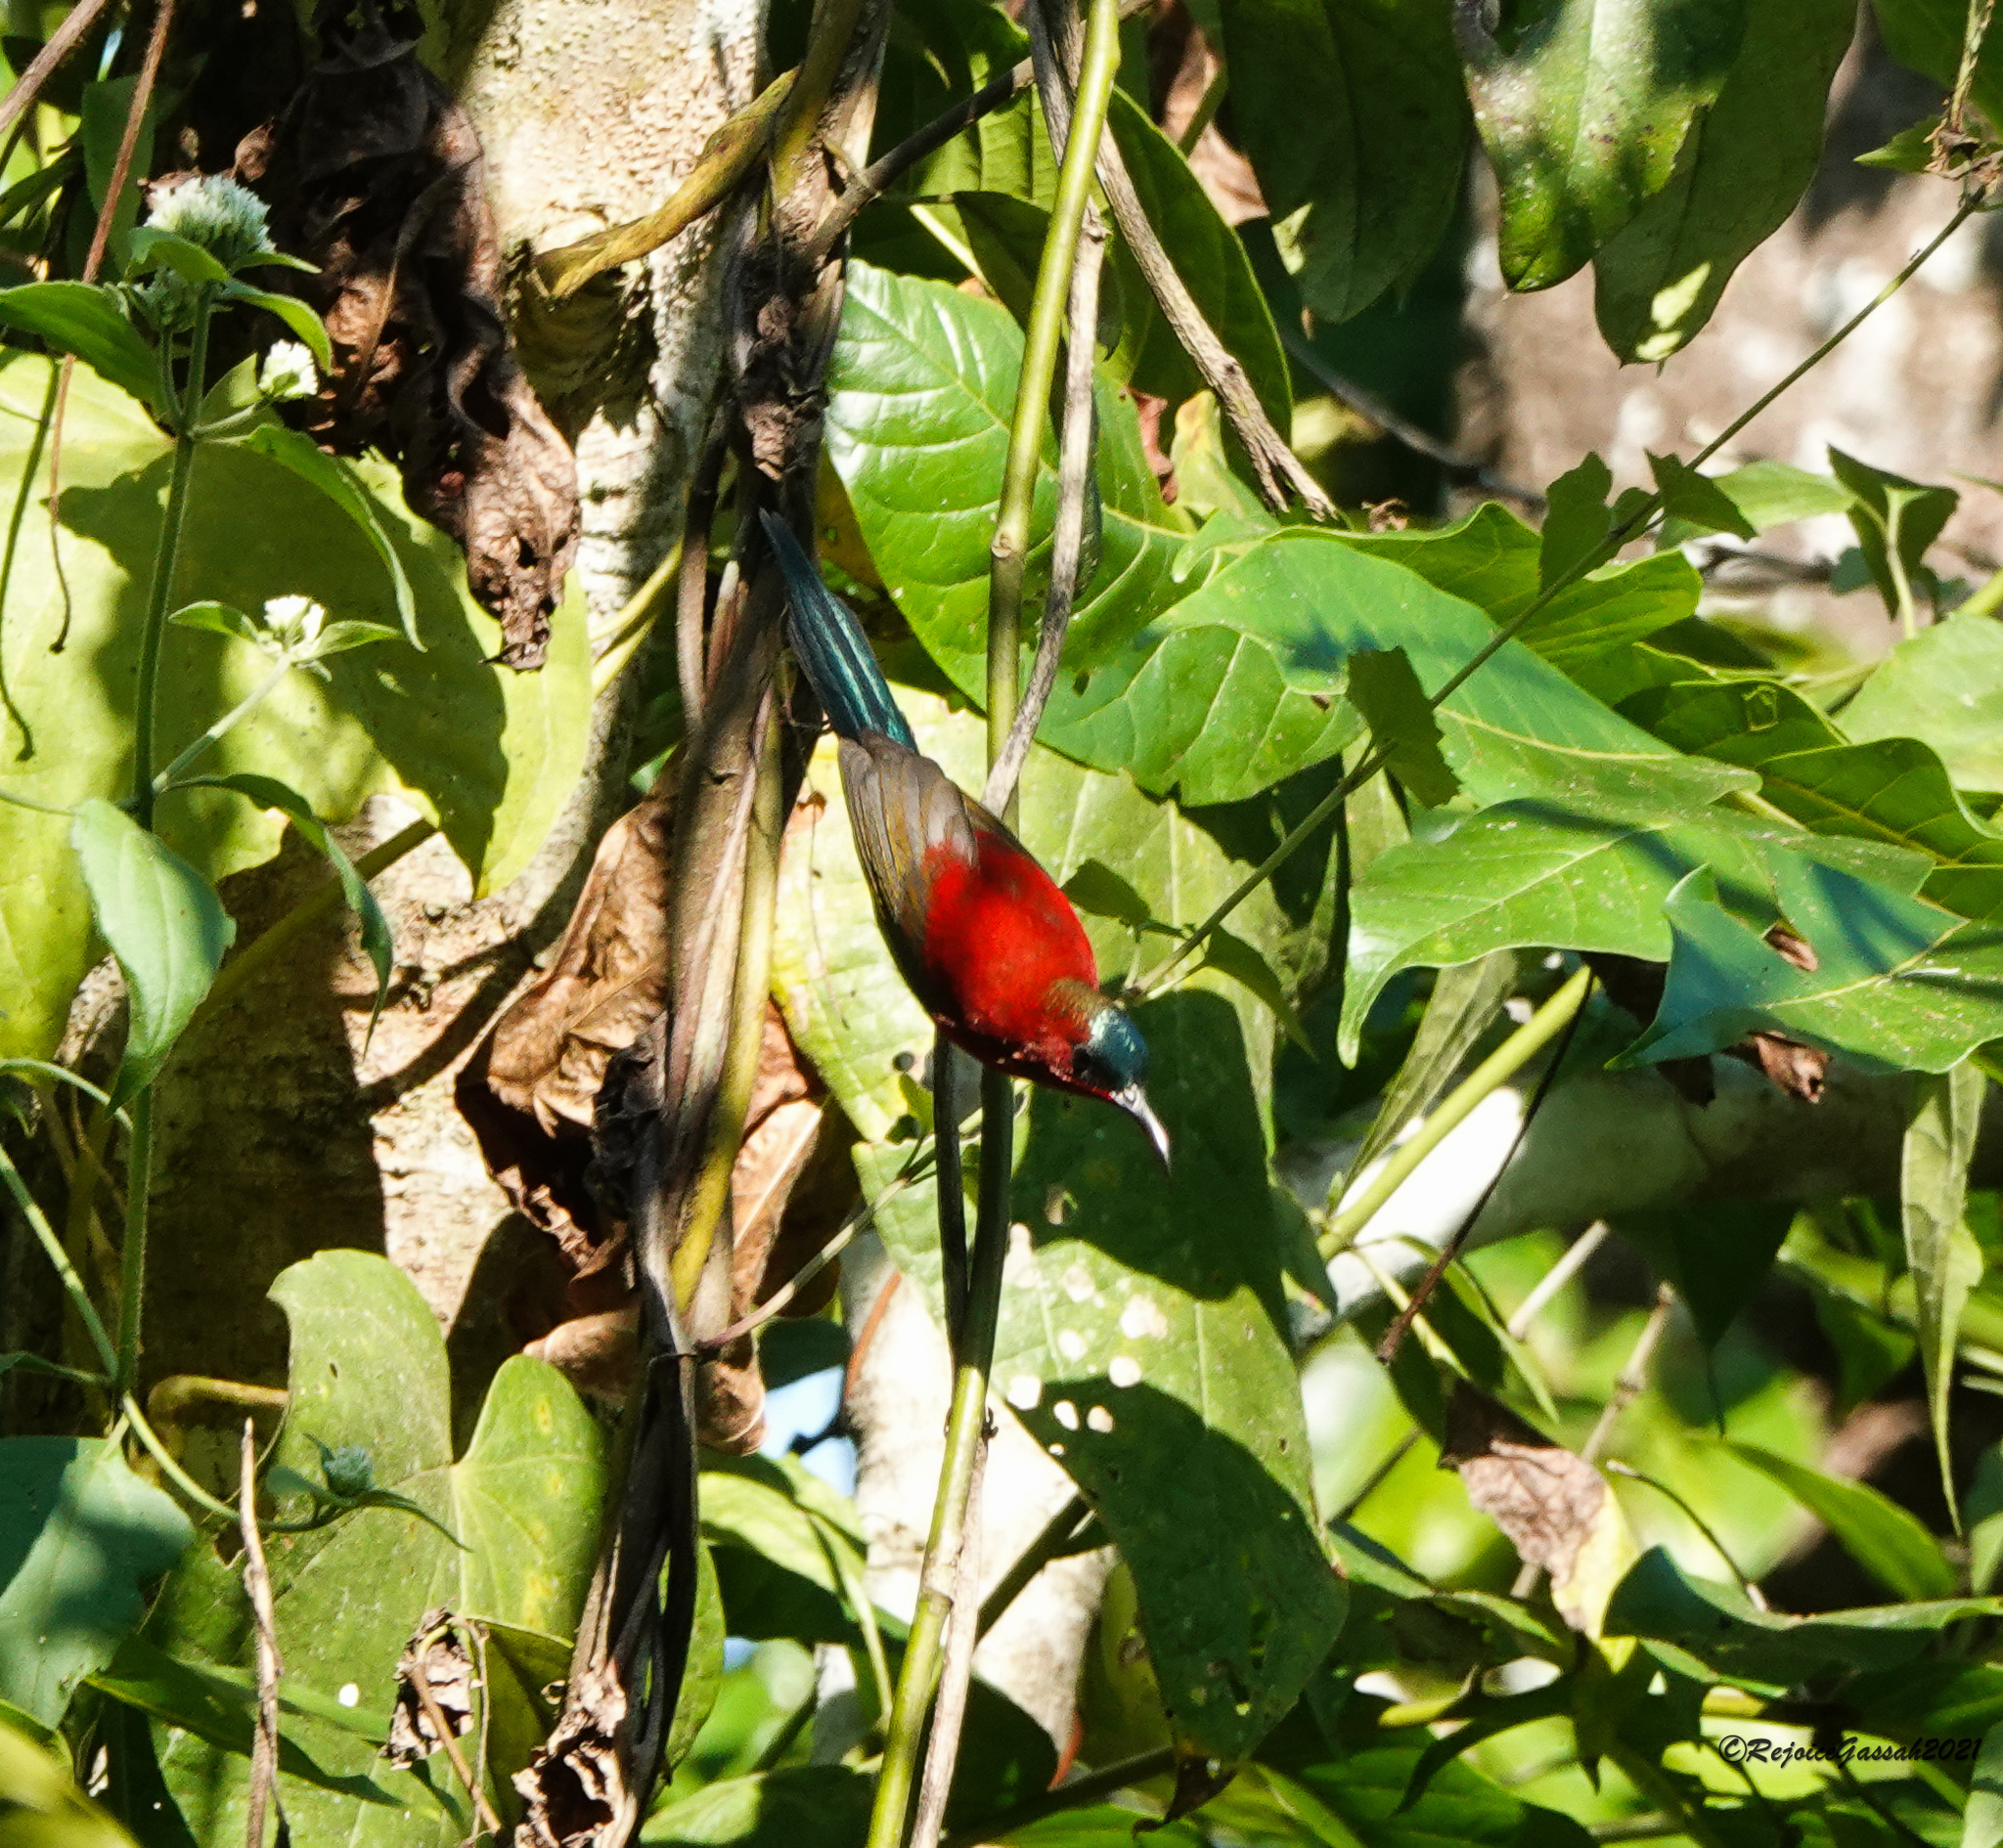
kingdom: Animalia
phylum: Chordata
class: Aves
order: Passeriformes
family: Nectariniidae
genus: Aethopyga
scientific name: Aethopyga siparaja
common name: Crimson sunbird
